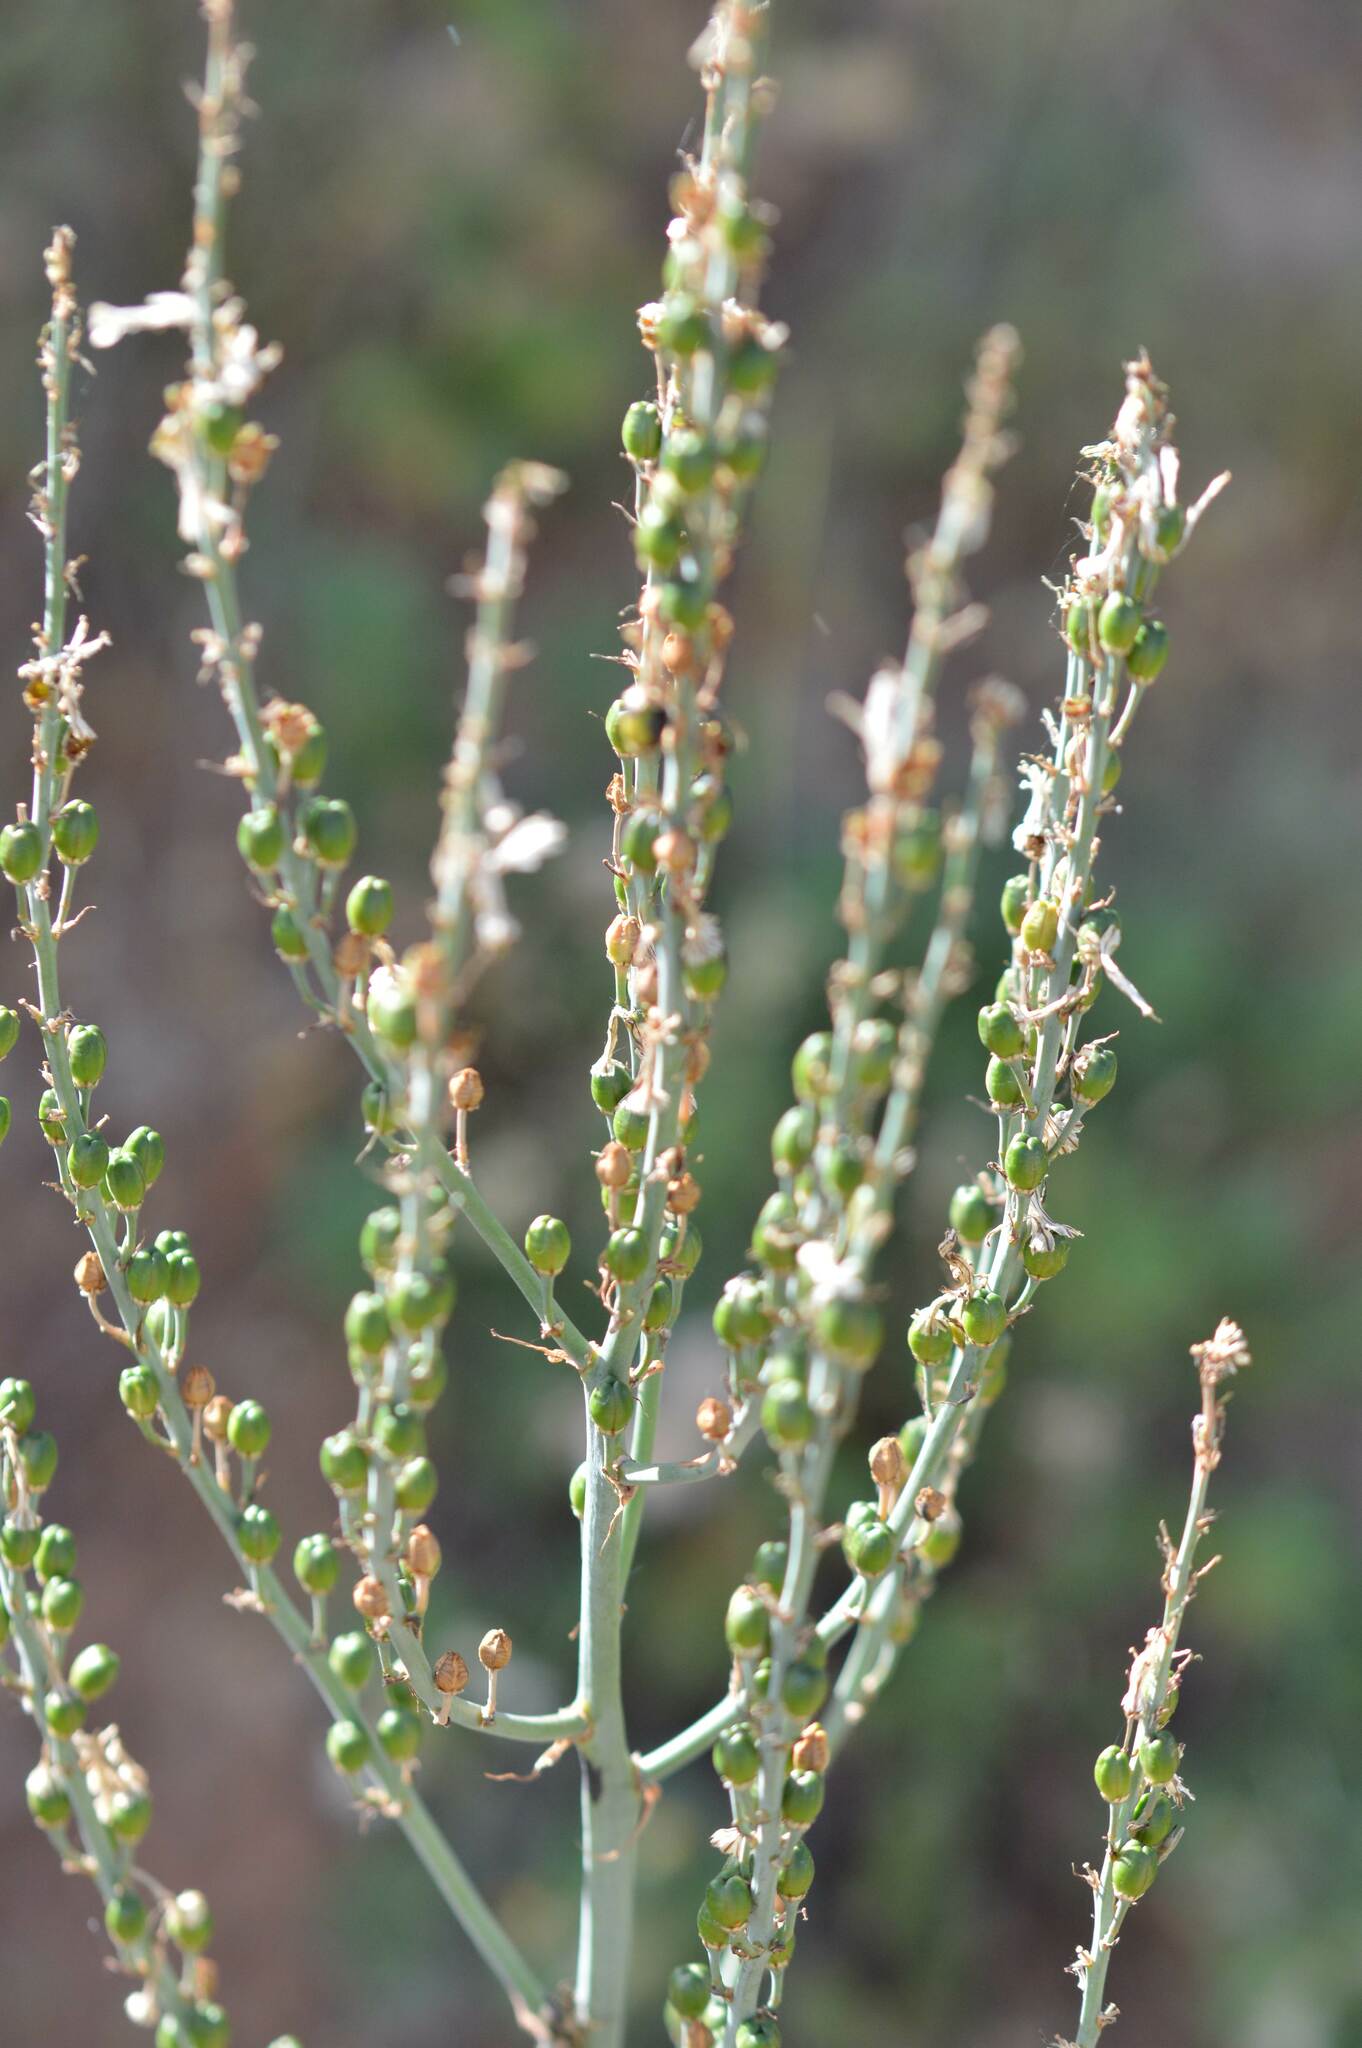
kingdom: Plantae
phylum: Tracheophyta
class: Liliopsida
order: Asparagales
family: Asphodelaceae
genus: Asphodelus
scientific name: Asphodelus ramosus
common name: Silverrod
